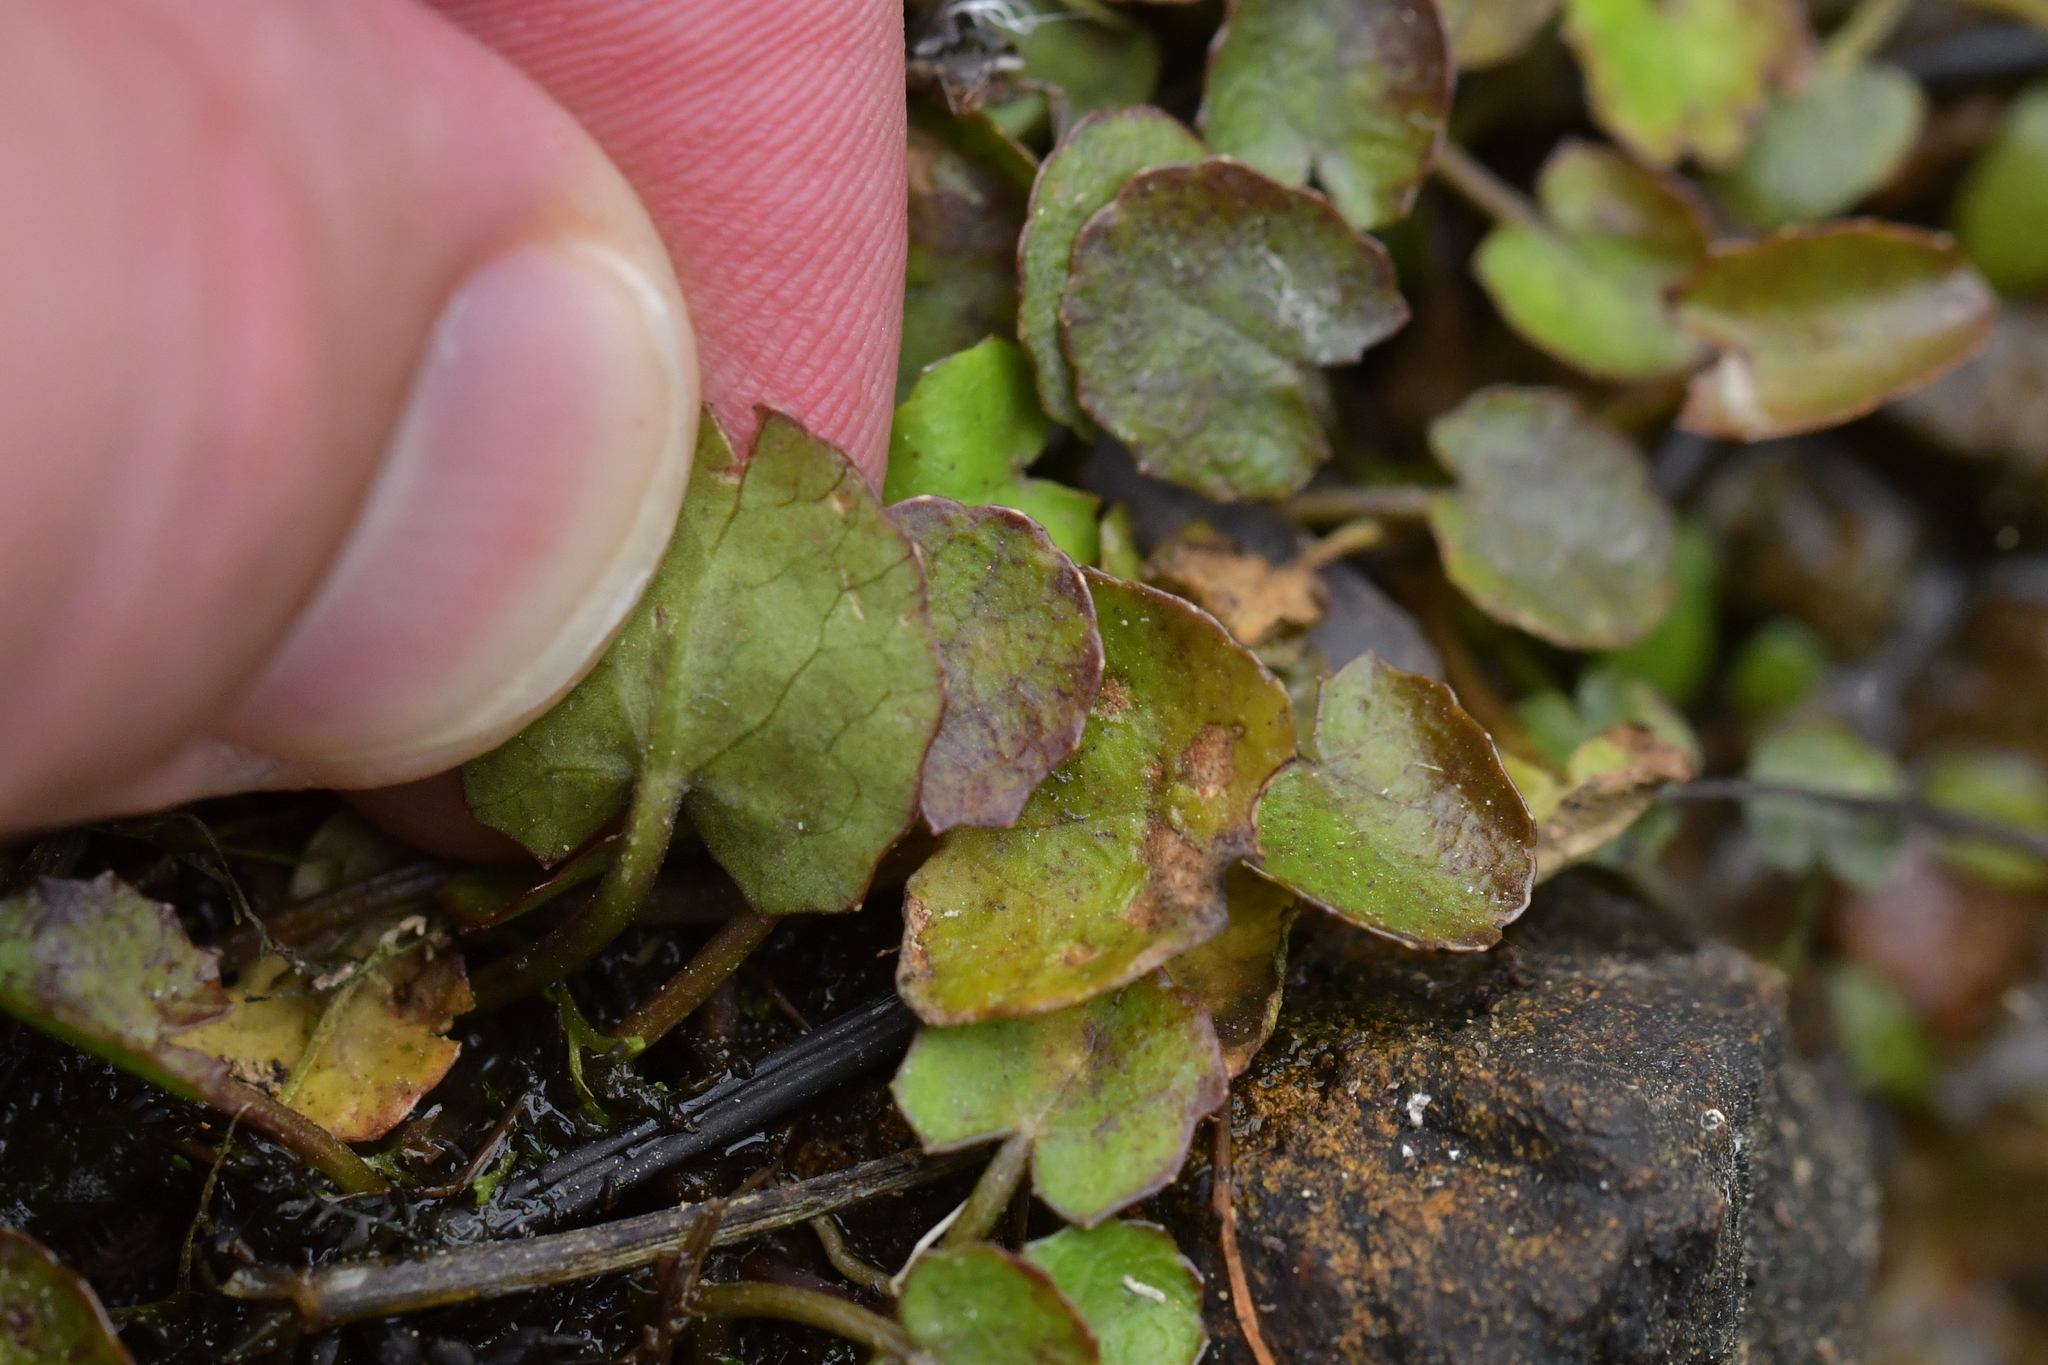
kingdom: Plantae
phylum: Tracheophyta
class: Magnoliopsida
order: Apiales
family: Apiaceae
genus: Centella
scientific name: Centella uniflora
